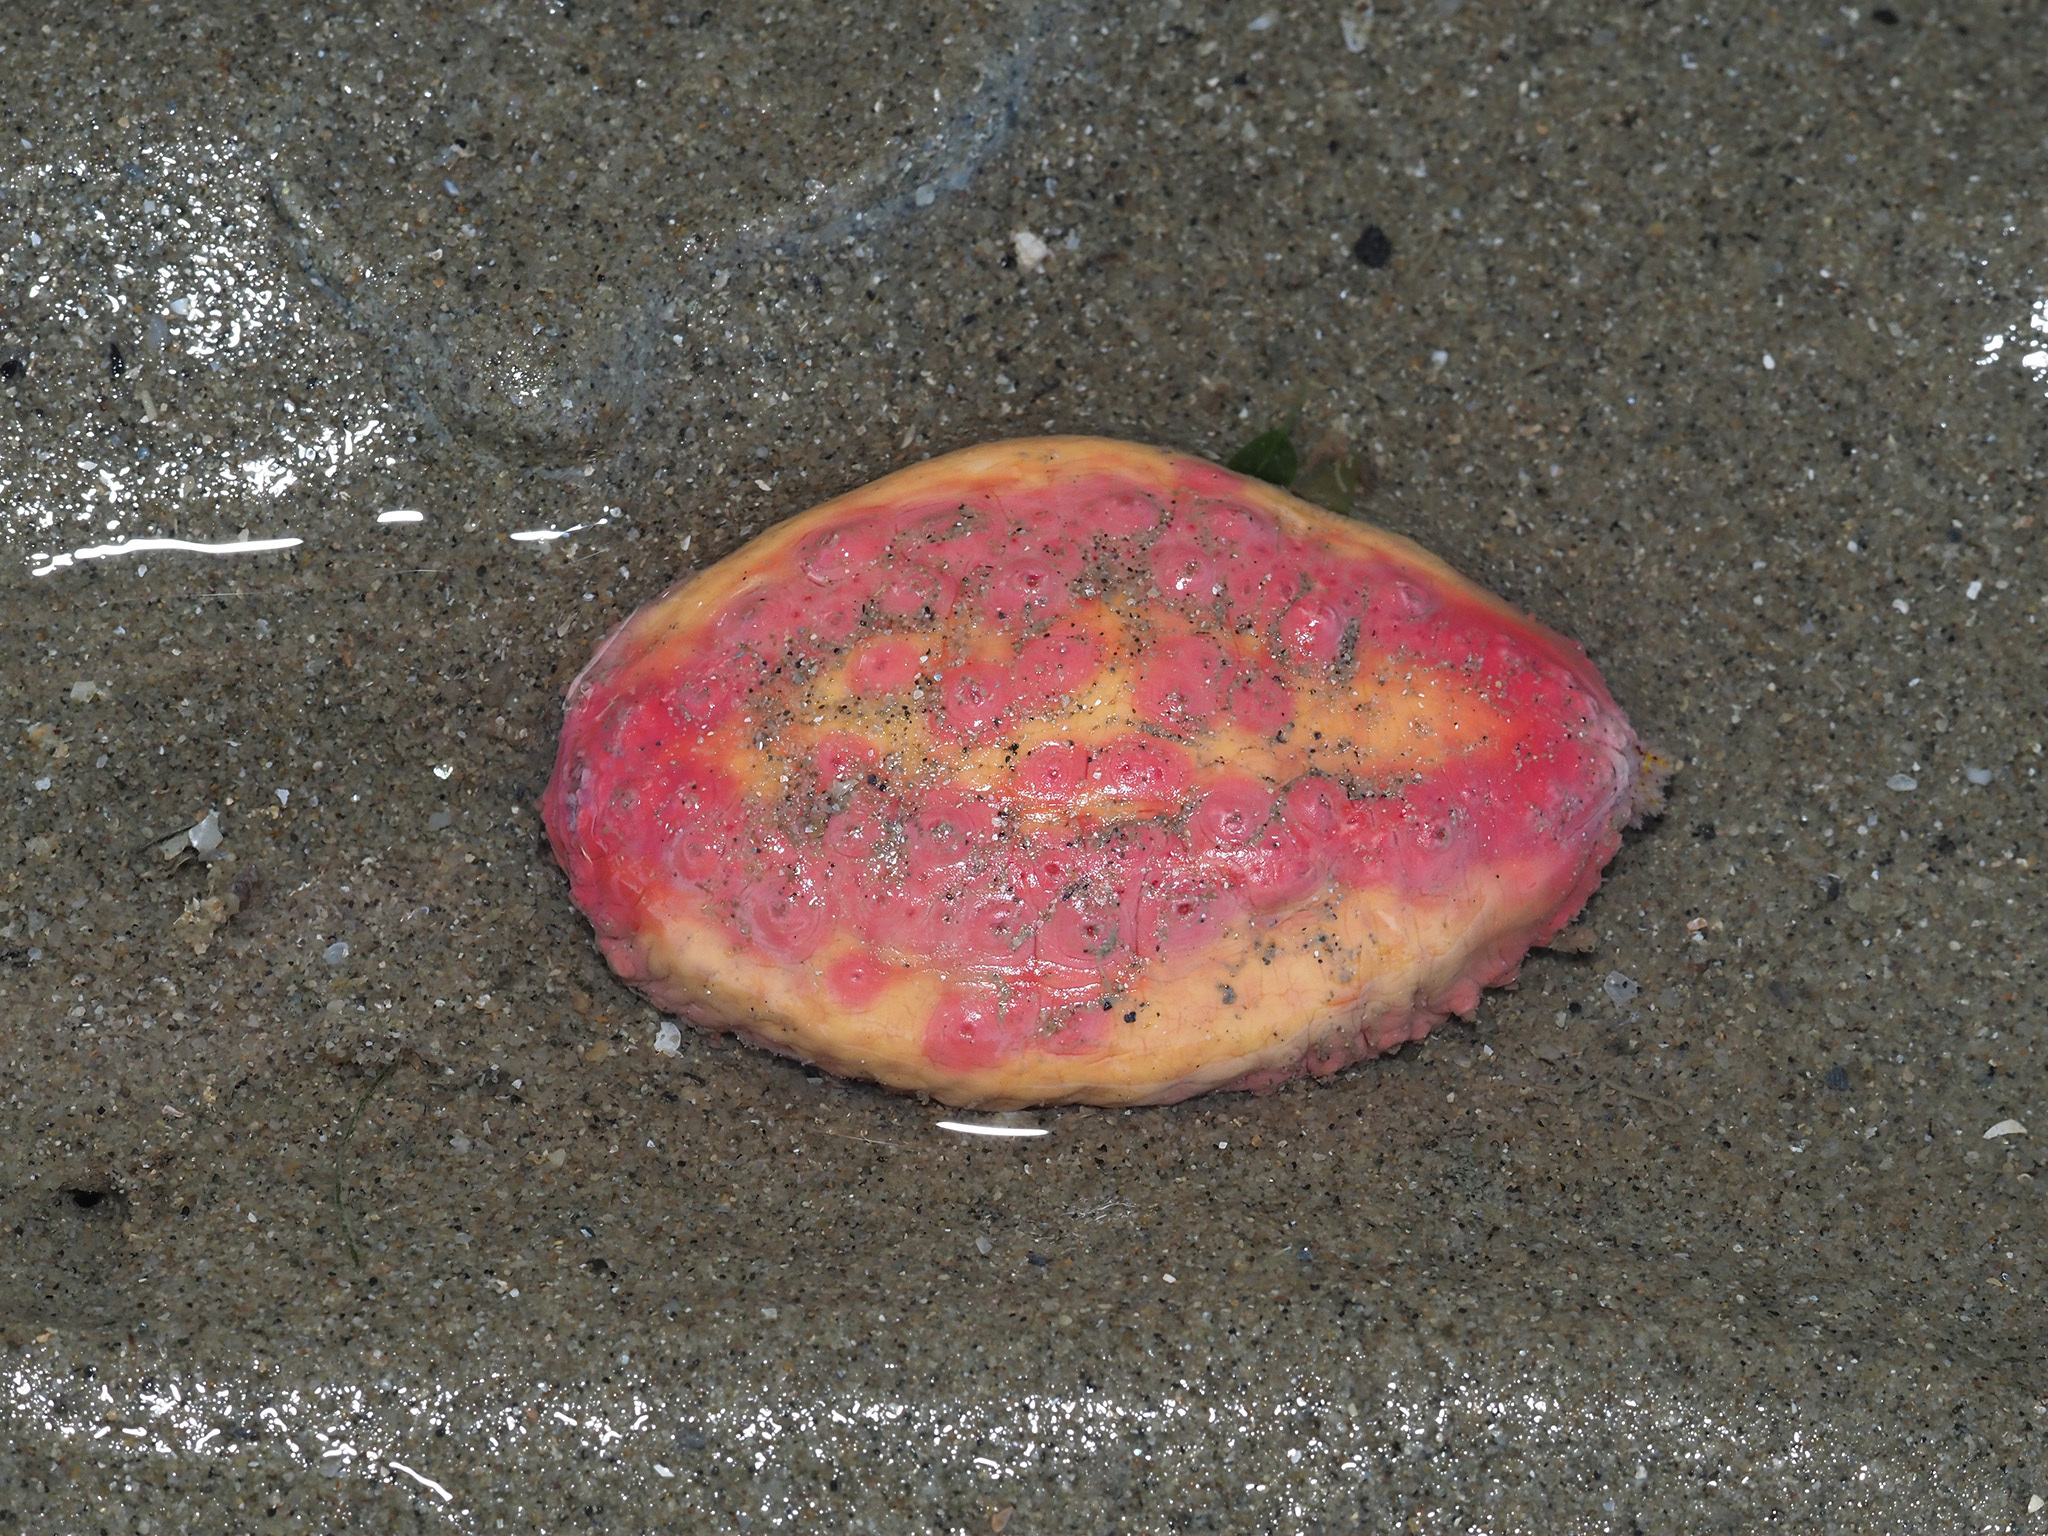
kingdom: Animalia
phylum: Echinodermata
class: Holothuroidea
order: Dendrochirotida
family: Cucumariidae
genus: Cercodemas
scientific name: Cercodemas anceps
